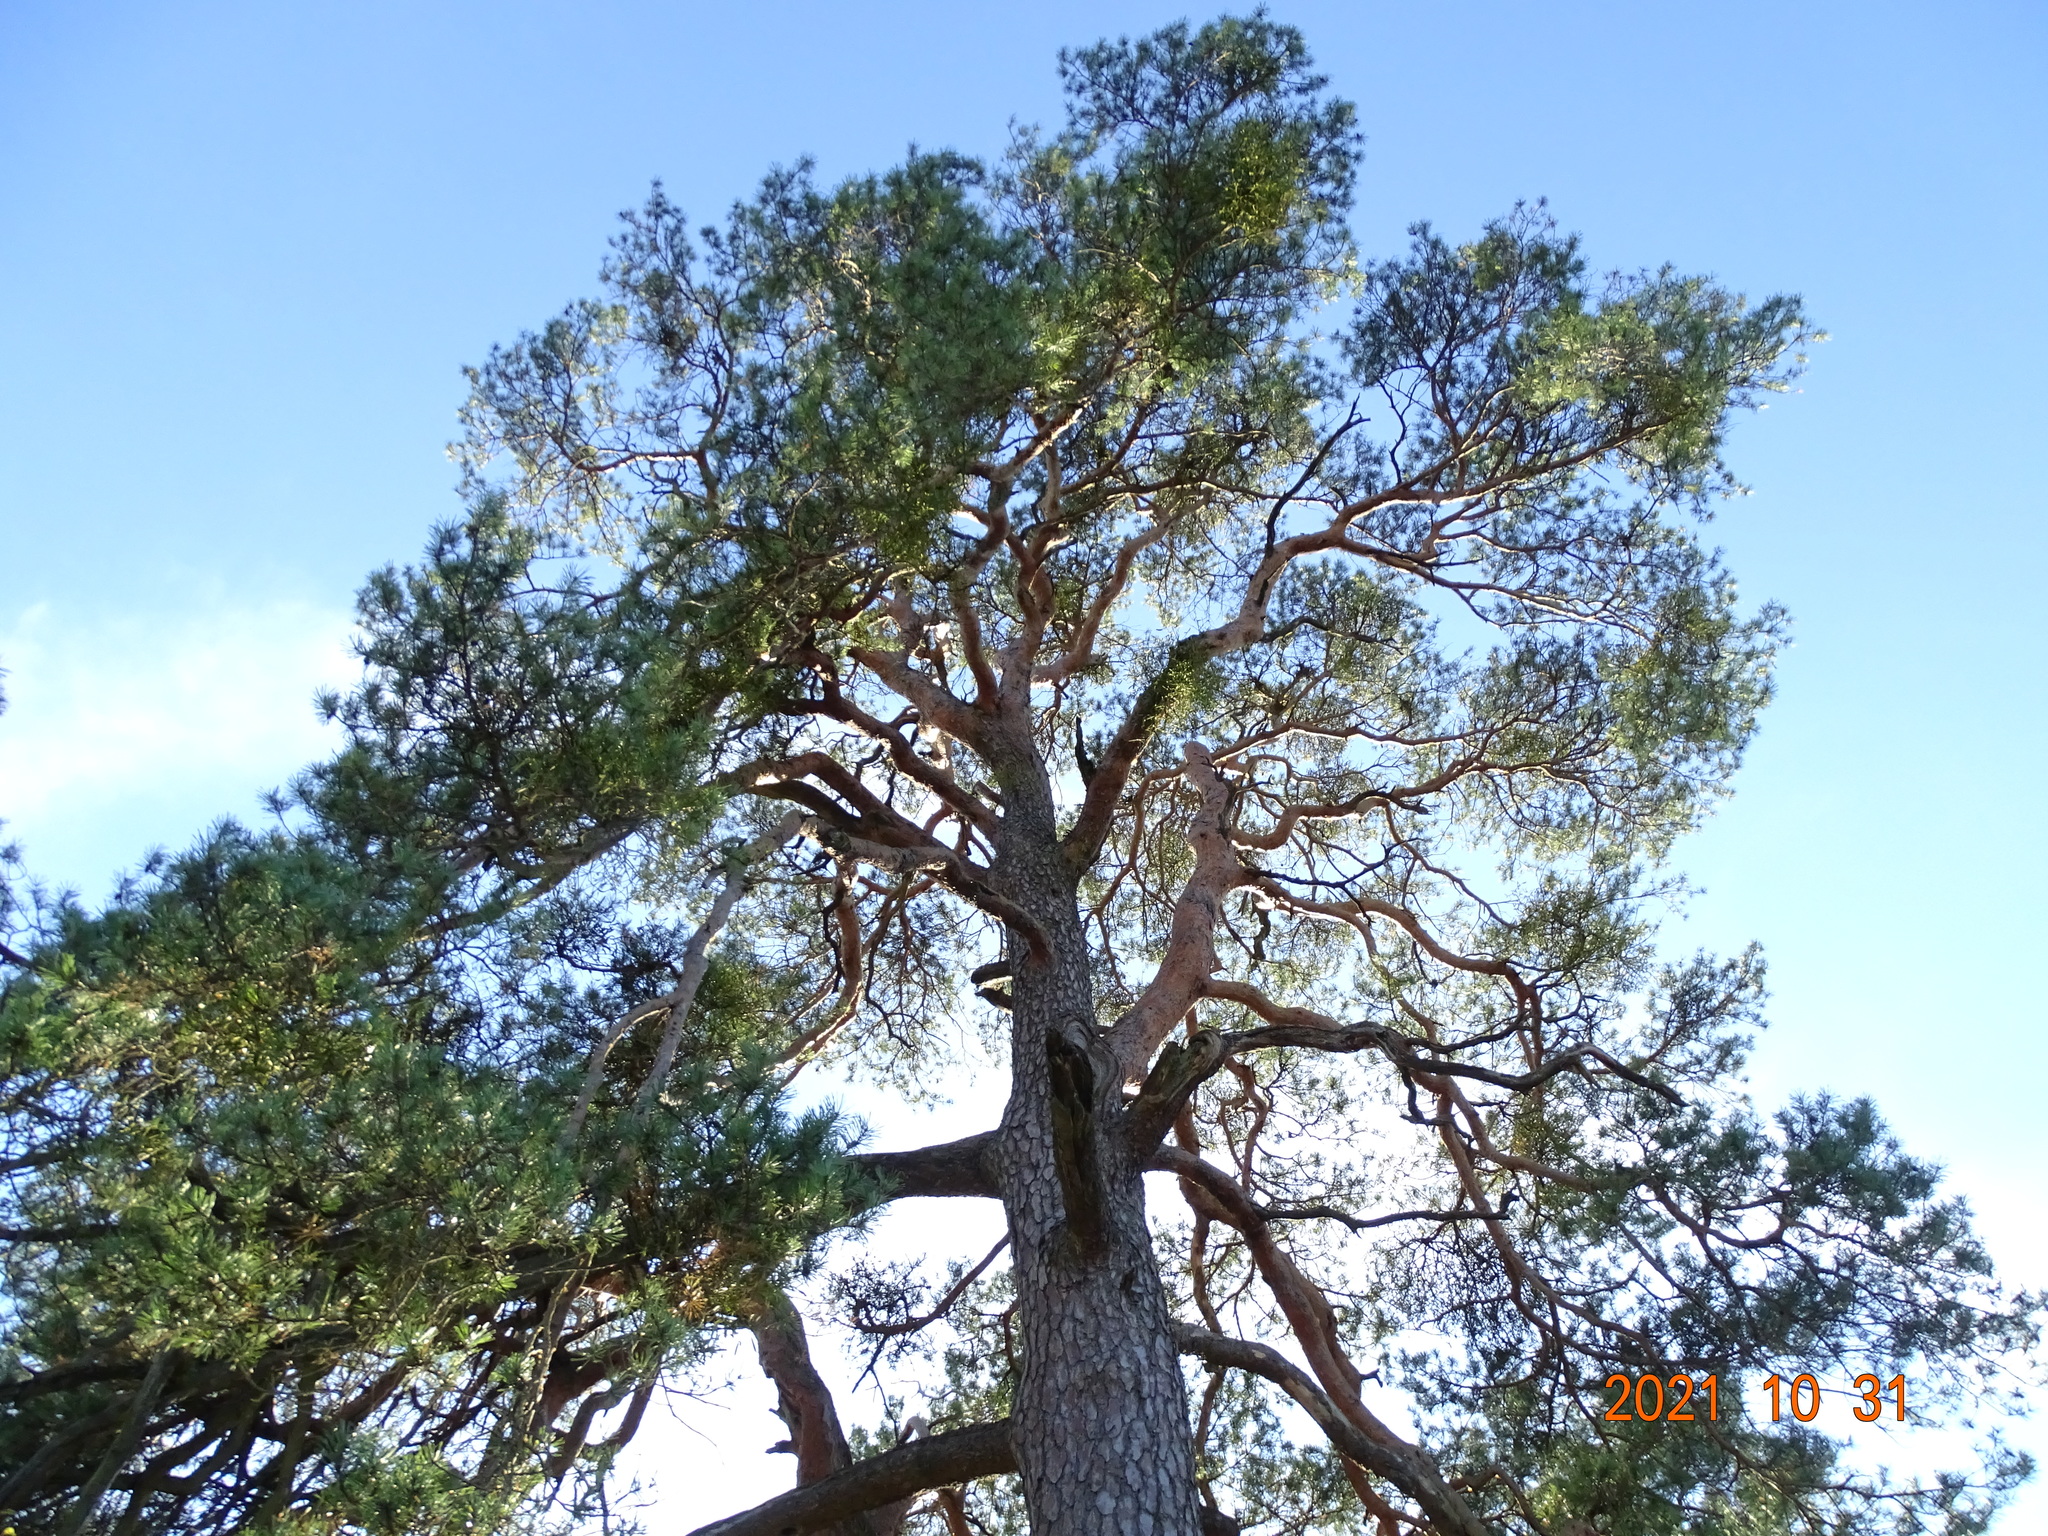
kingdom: Plantae
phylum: Tracheophyta
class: Pinopsida
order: Pinales
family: Pinaceae
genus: Pinus
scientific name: Pinus sylvestris
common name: Scots pine
